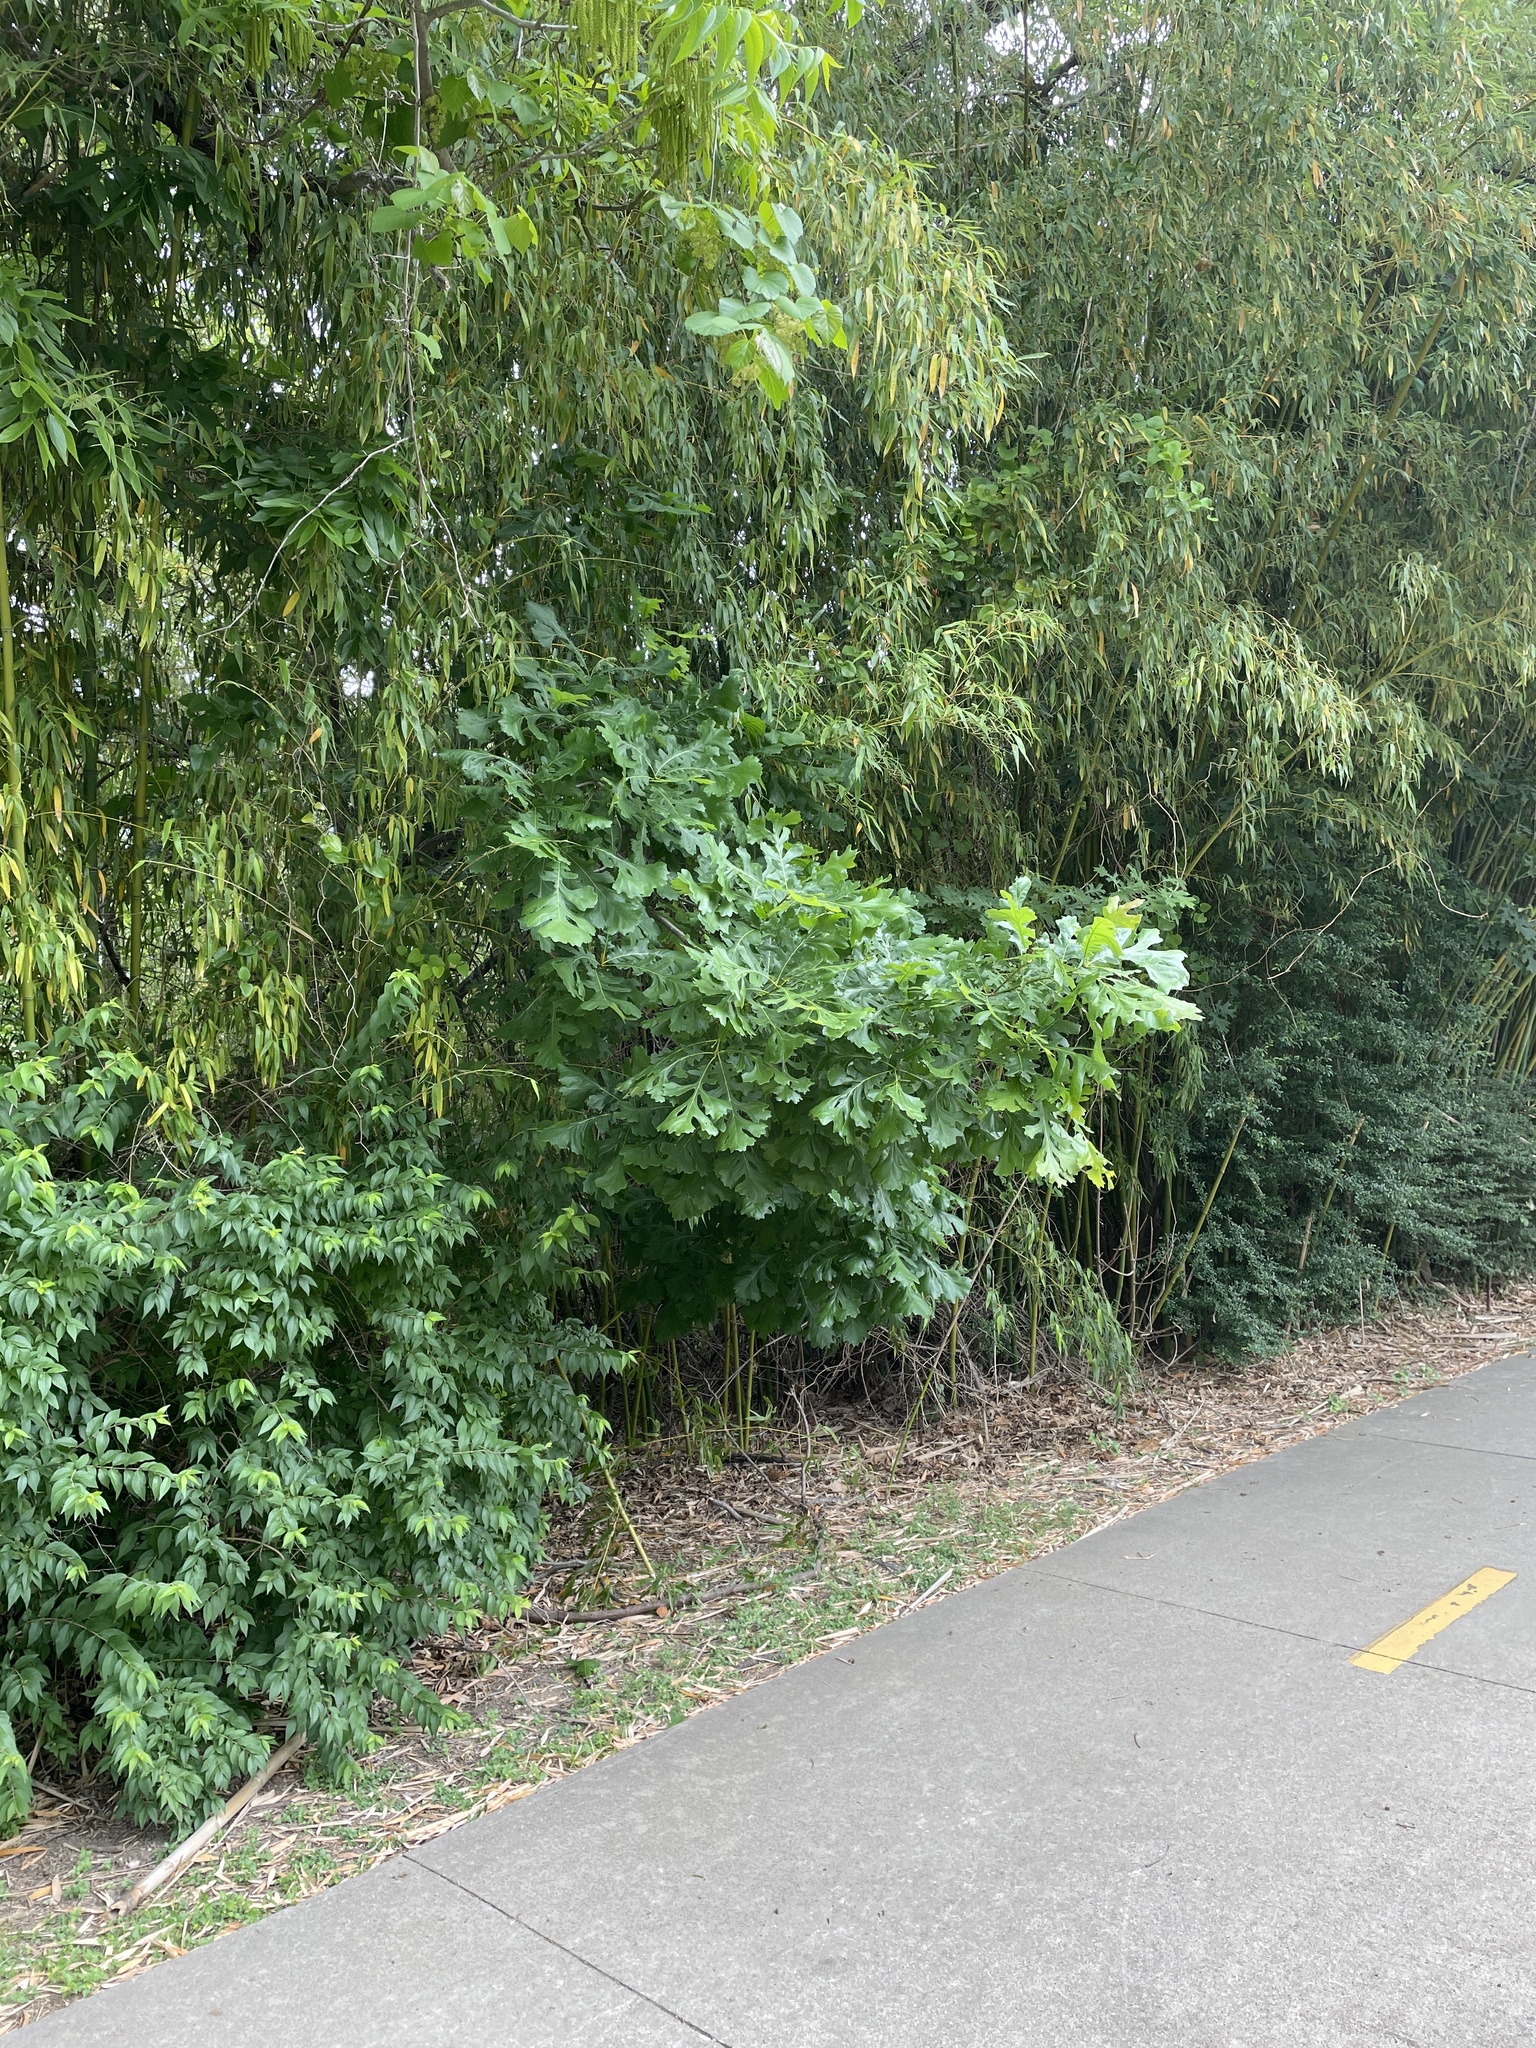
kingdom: Plantae
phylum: Tracheophyta
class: Magnoliopsida
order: Fagales
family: Fagaceae
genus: Quercus
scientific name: Quercus macrocarpa
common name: Bur oak
